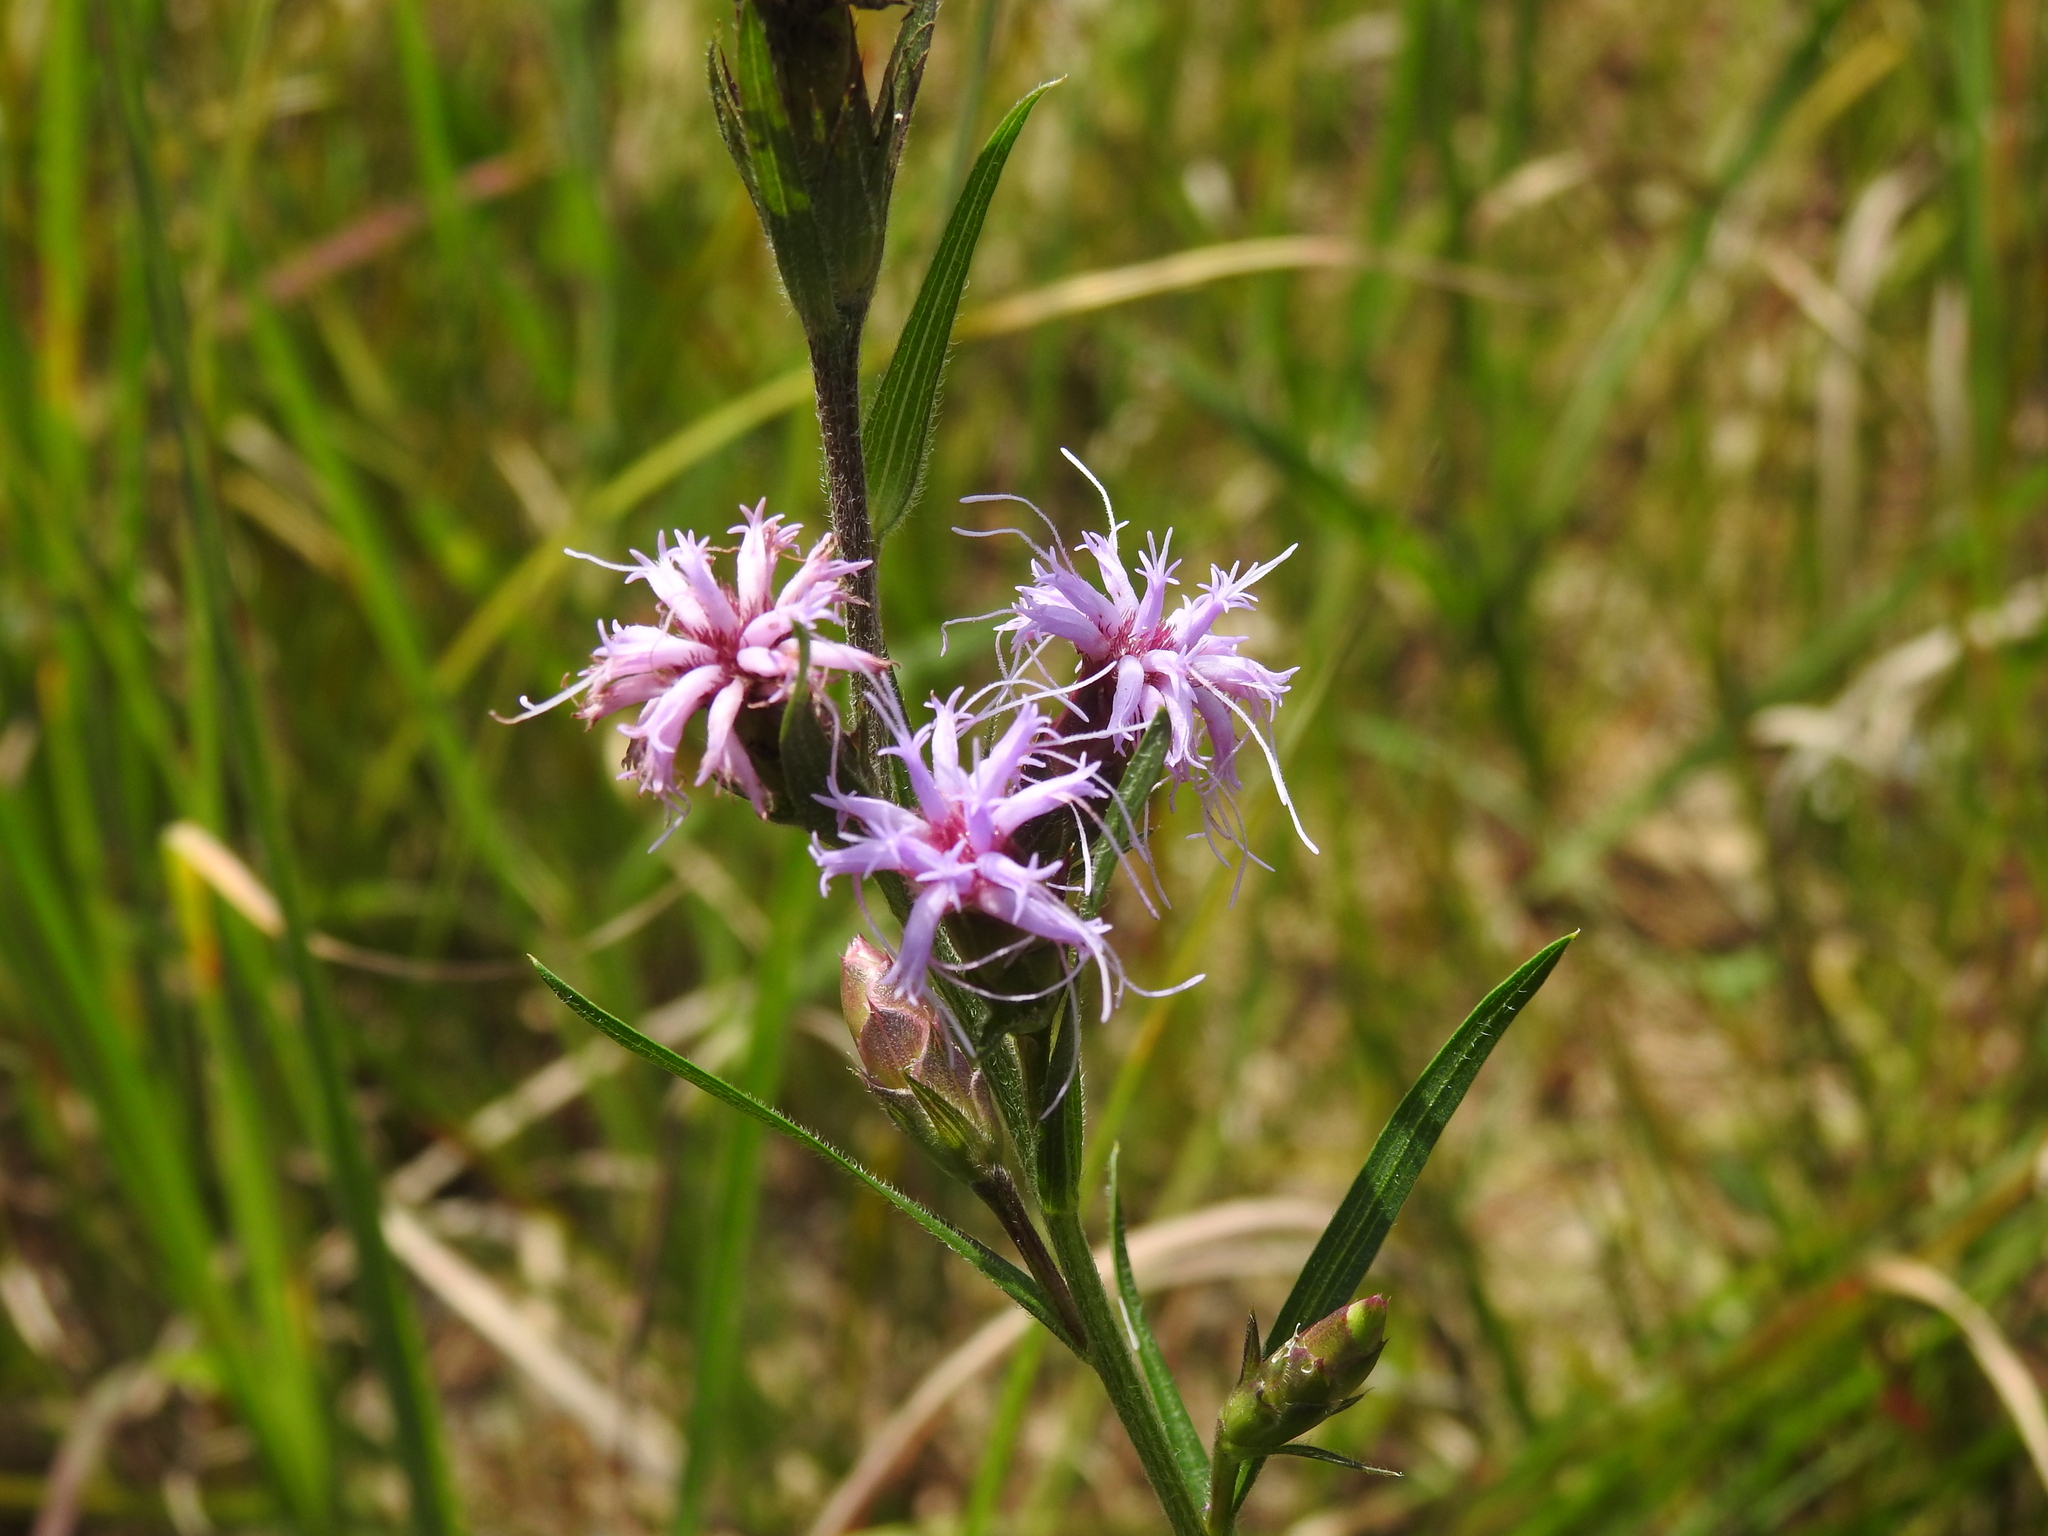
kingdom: Plantae
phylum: Tracheophyta
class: Magnoliopsida
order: Asterales
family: Asteraceae
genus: Liatris
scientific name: Liatris cylindracea
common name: Few-head blazingstar
